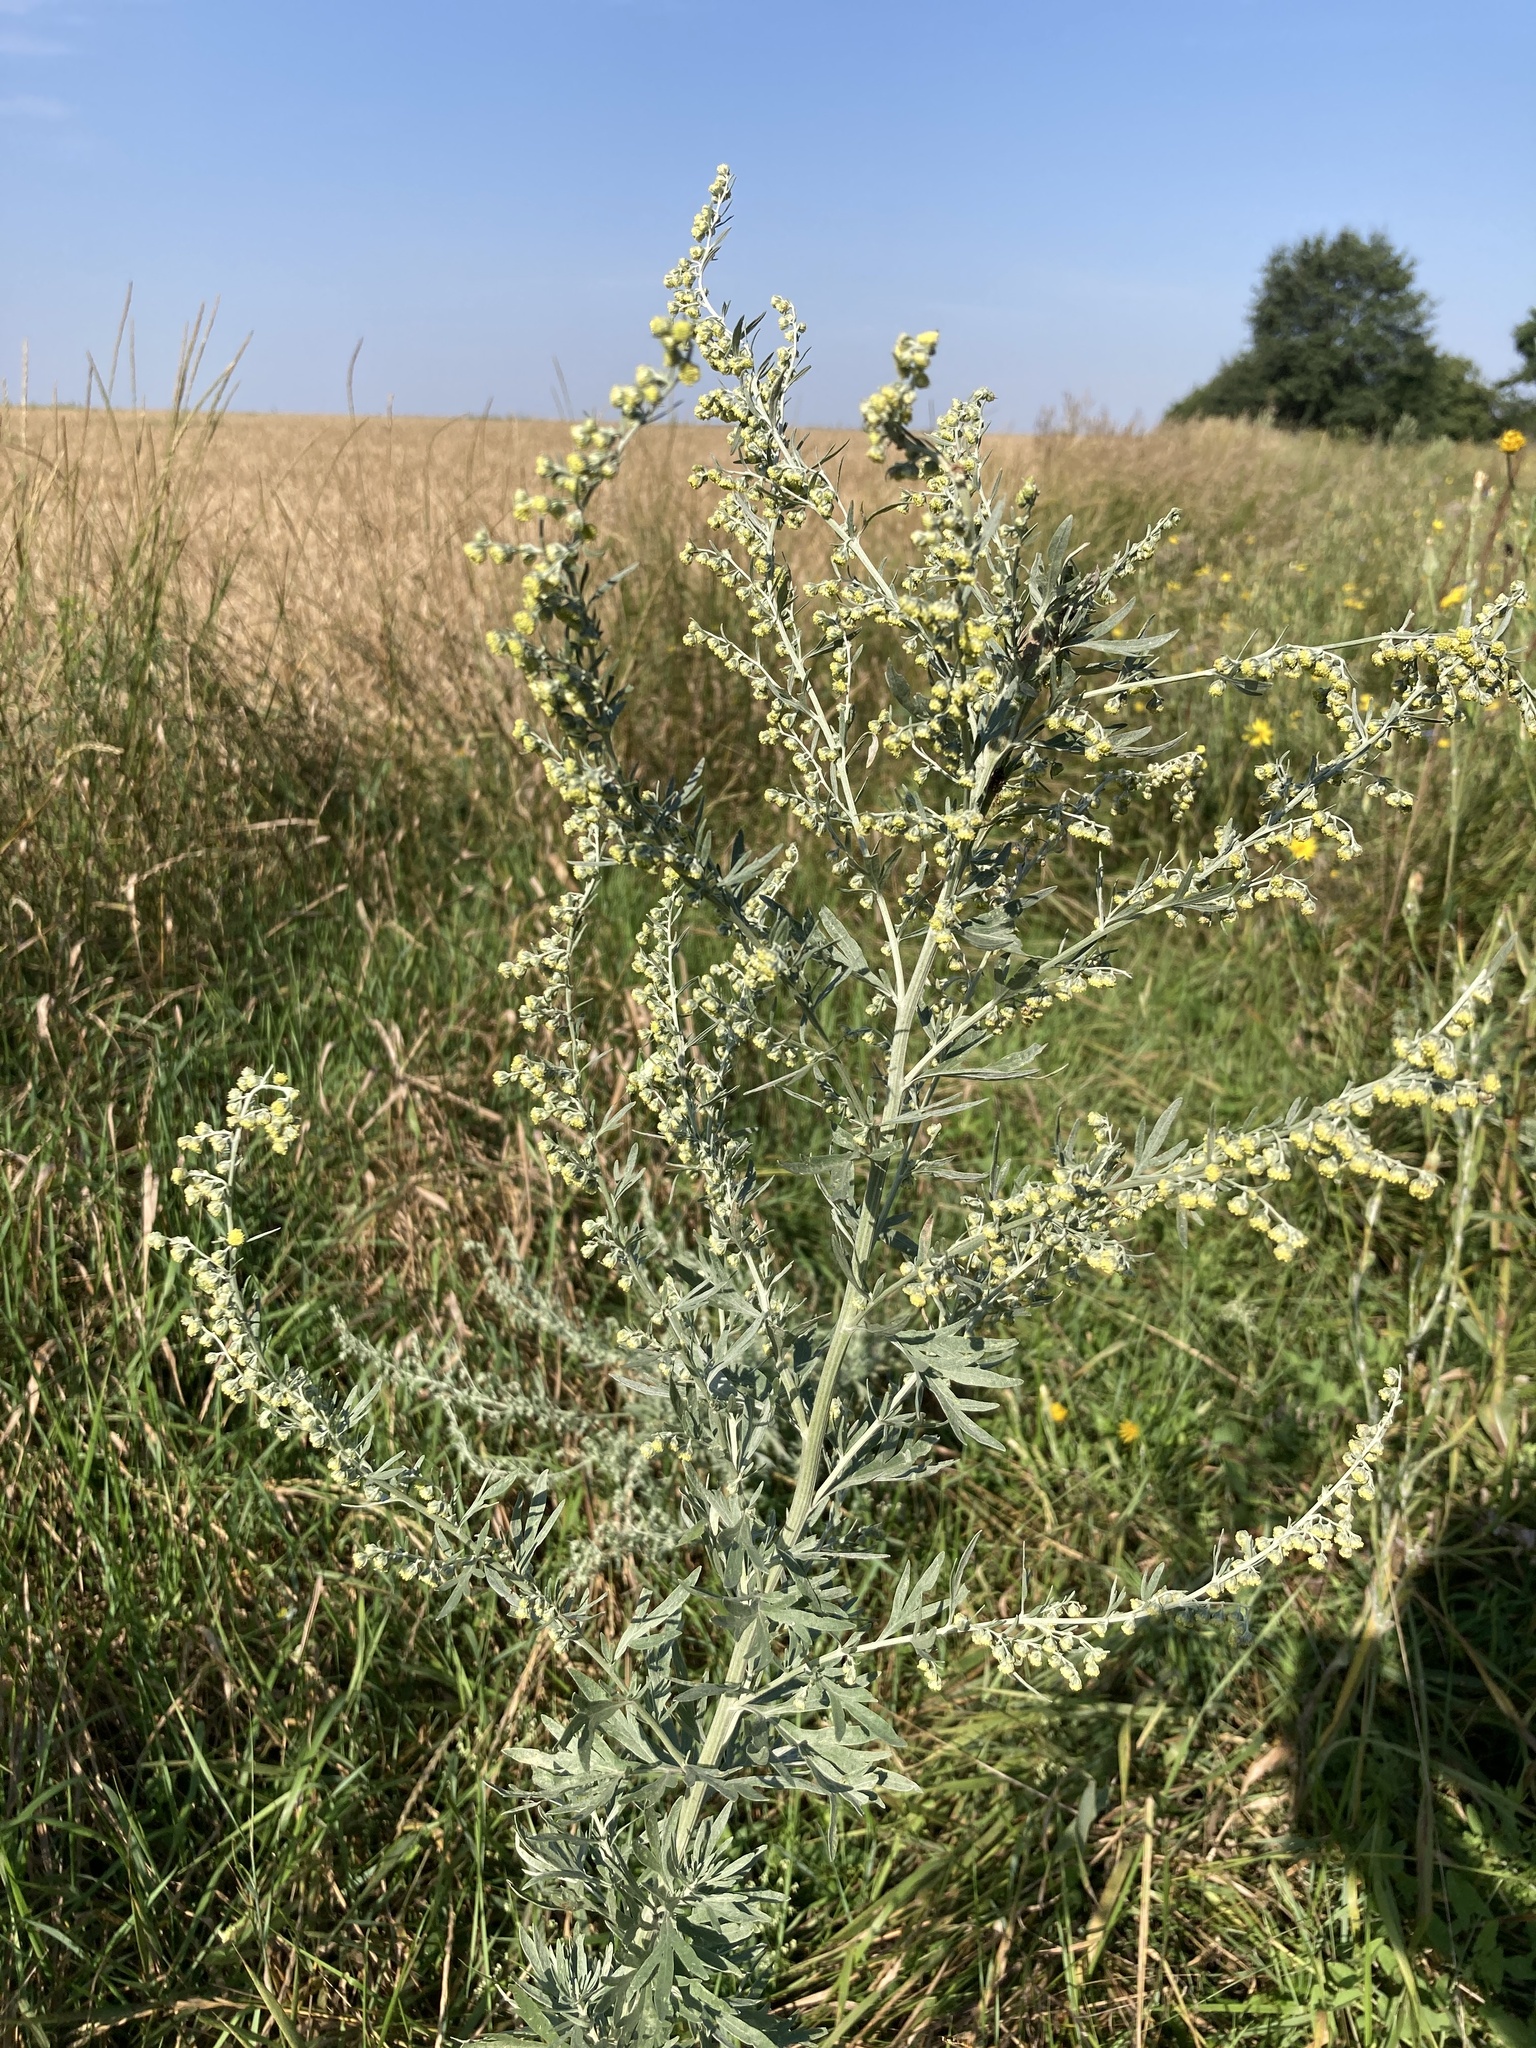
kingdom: Plantae
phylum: Tracheophyta
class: Magnoliopsida
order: Asterales
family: Asteraceae
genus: Artemisia
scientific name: Artemisia absinthium
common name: Wormwood
